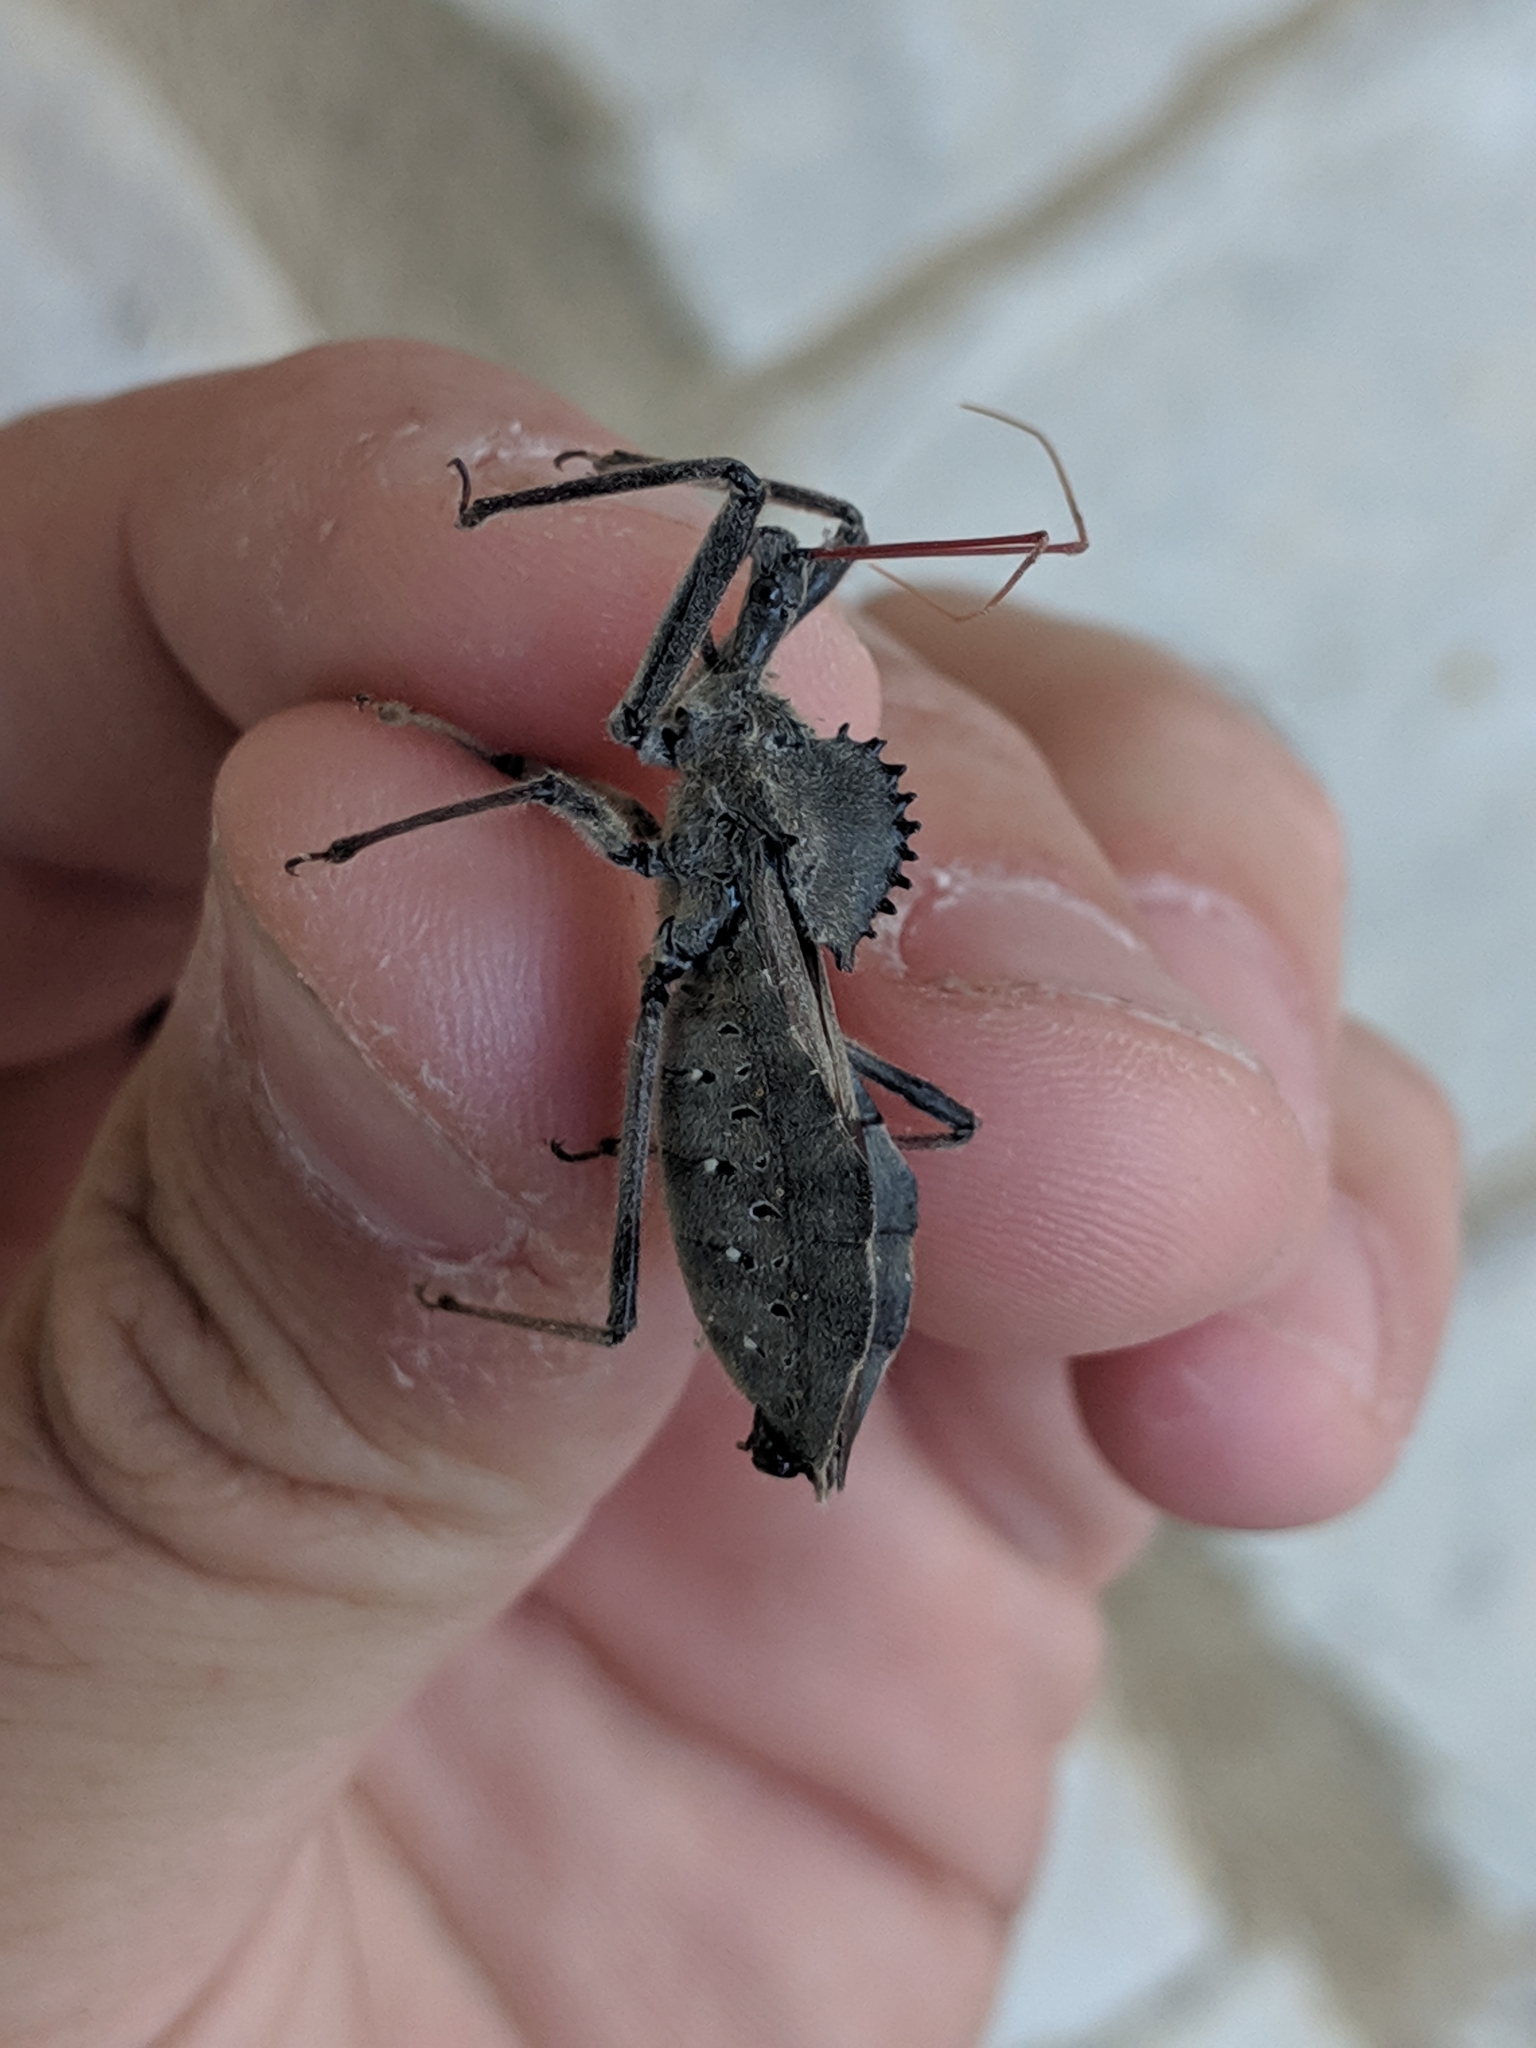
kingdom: Animalia
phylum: Arthropoda
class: Insecta
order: Hemiptera
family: Reduviidae
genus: Arilus
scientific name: Arilus cristatus
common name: North american wheel bug
